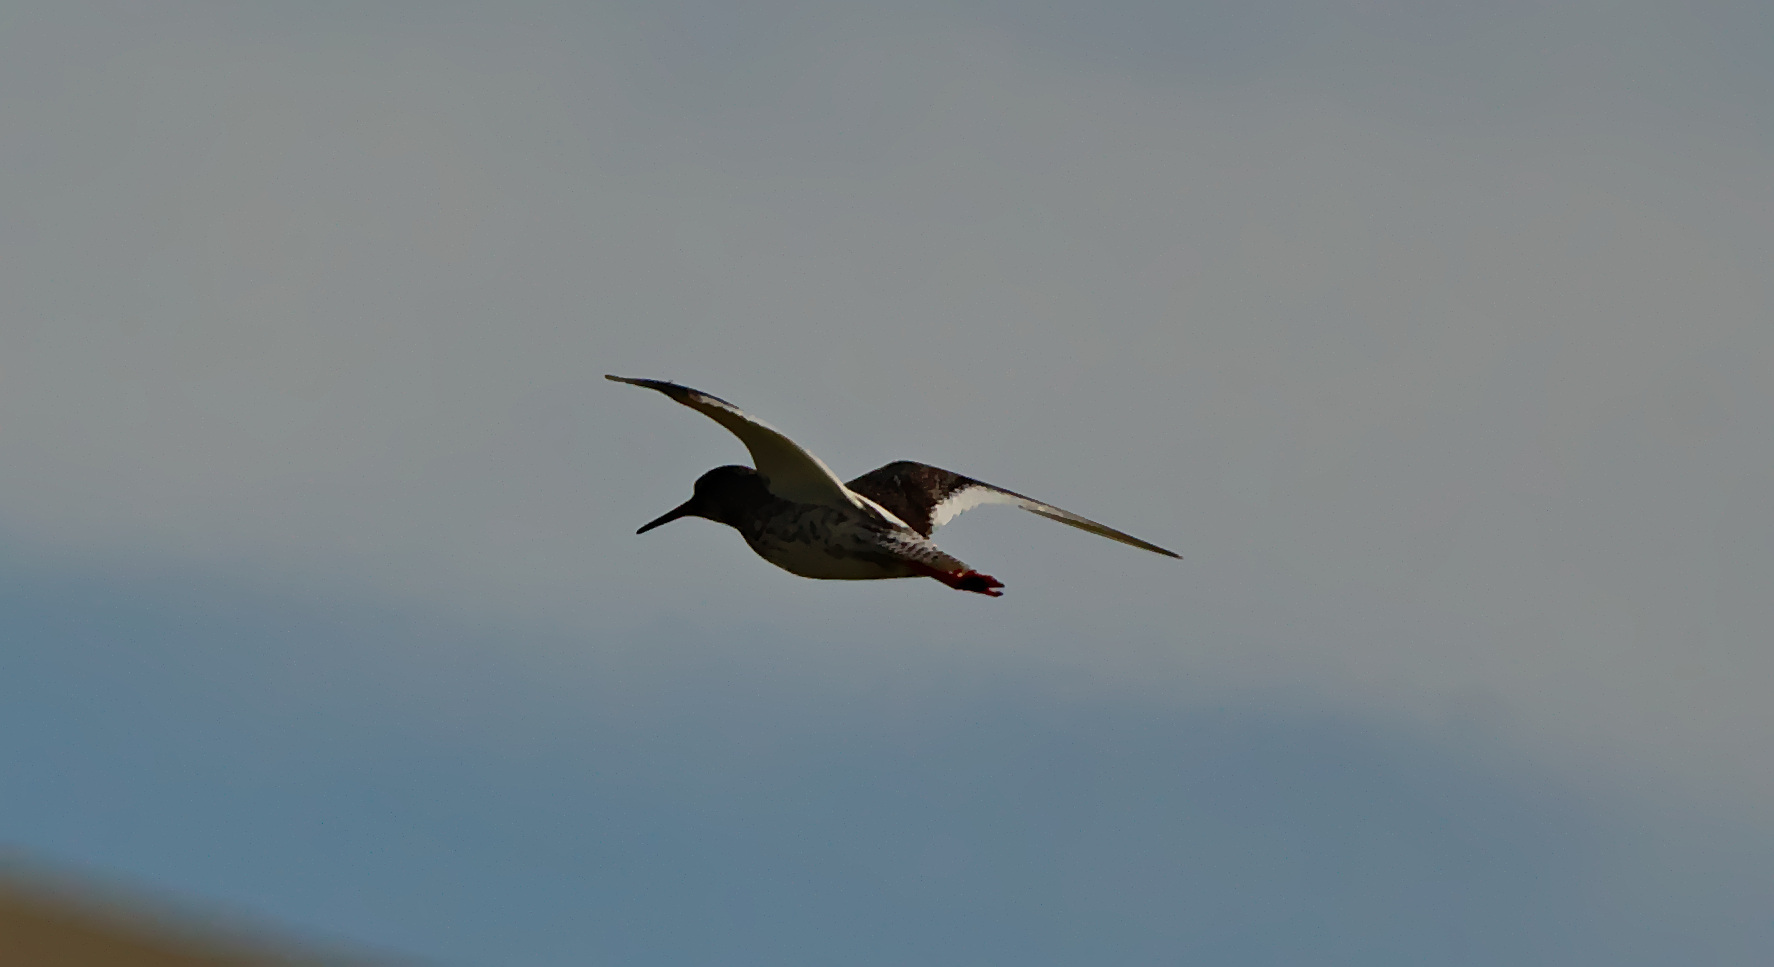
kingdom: Animalia
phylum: Chordata
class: Aves
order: Charadriiformes
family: Scolopacidae
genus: Tringa
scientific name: Tringa totanus
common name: Common redshank
